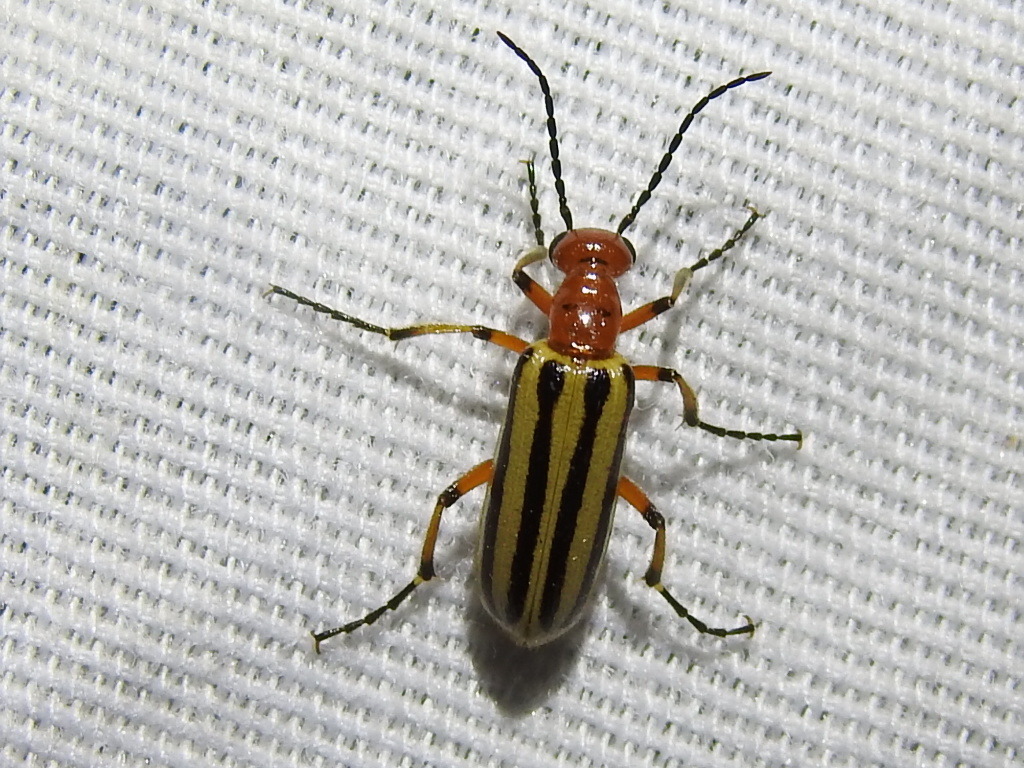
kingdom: Animalia
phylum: Arthropoda
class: Insecta
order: Coleoptera
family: Meloidae
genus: Pyrota
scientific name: Pyrota bilineata
